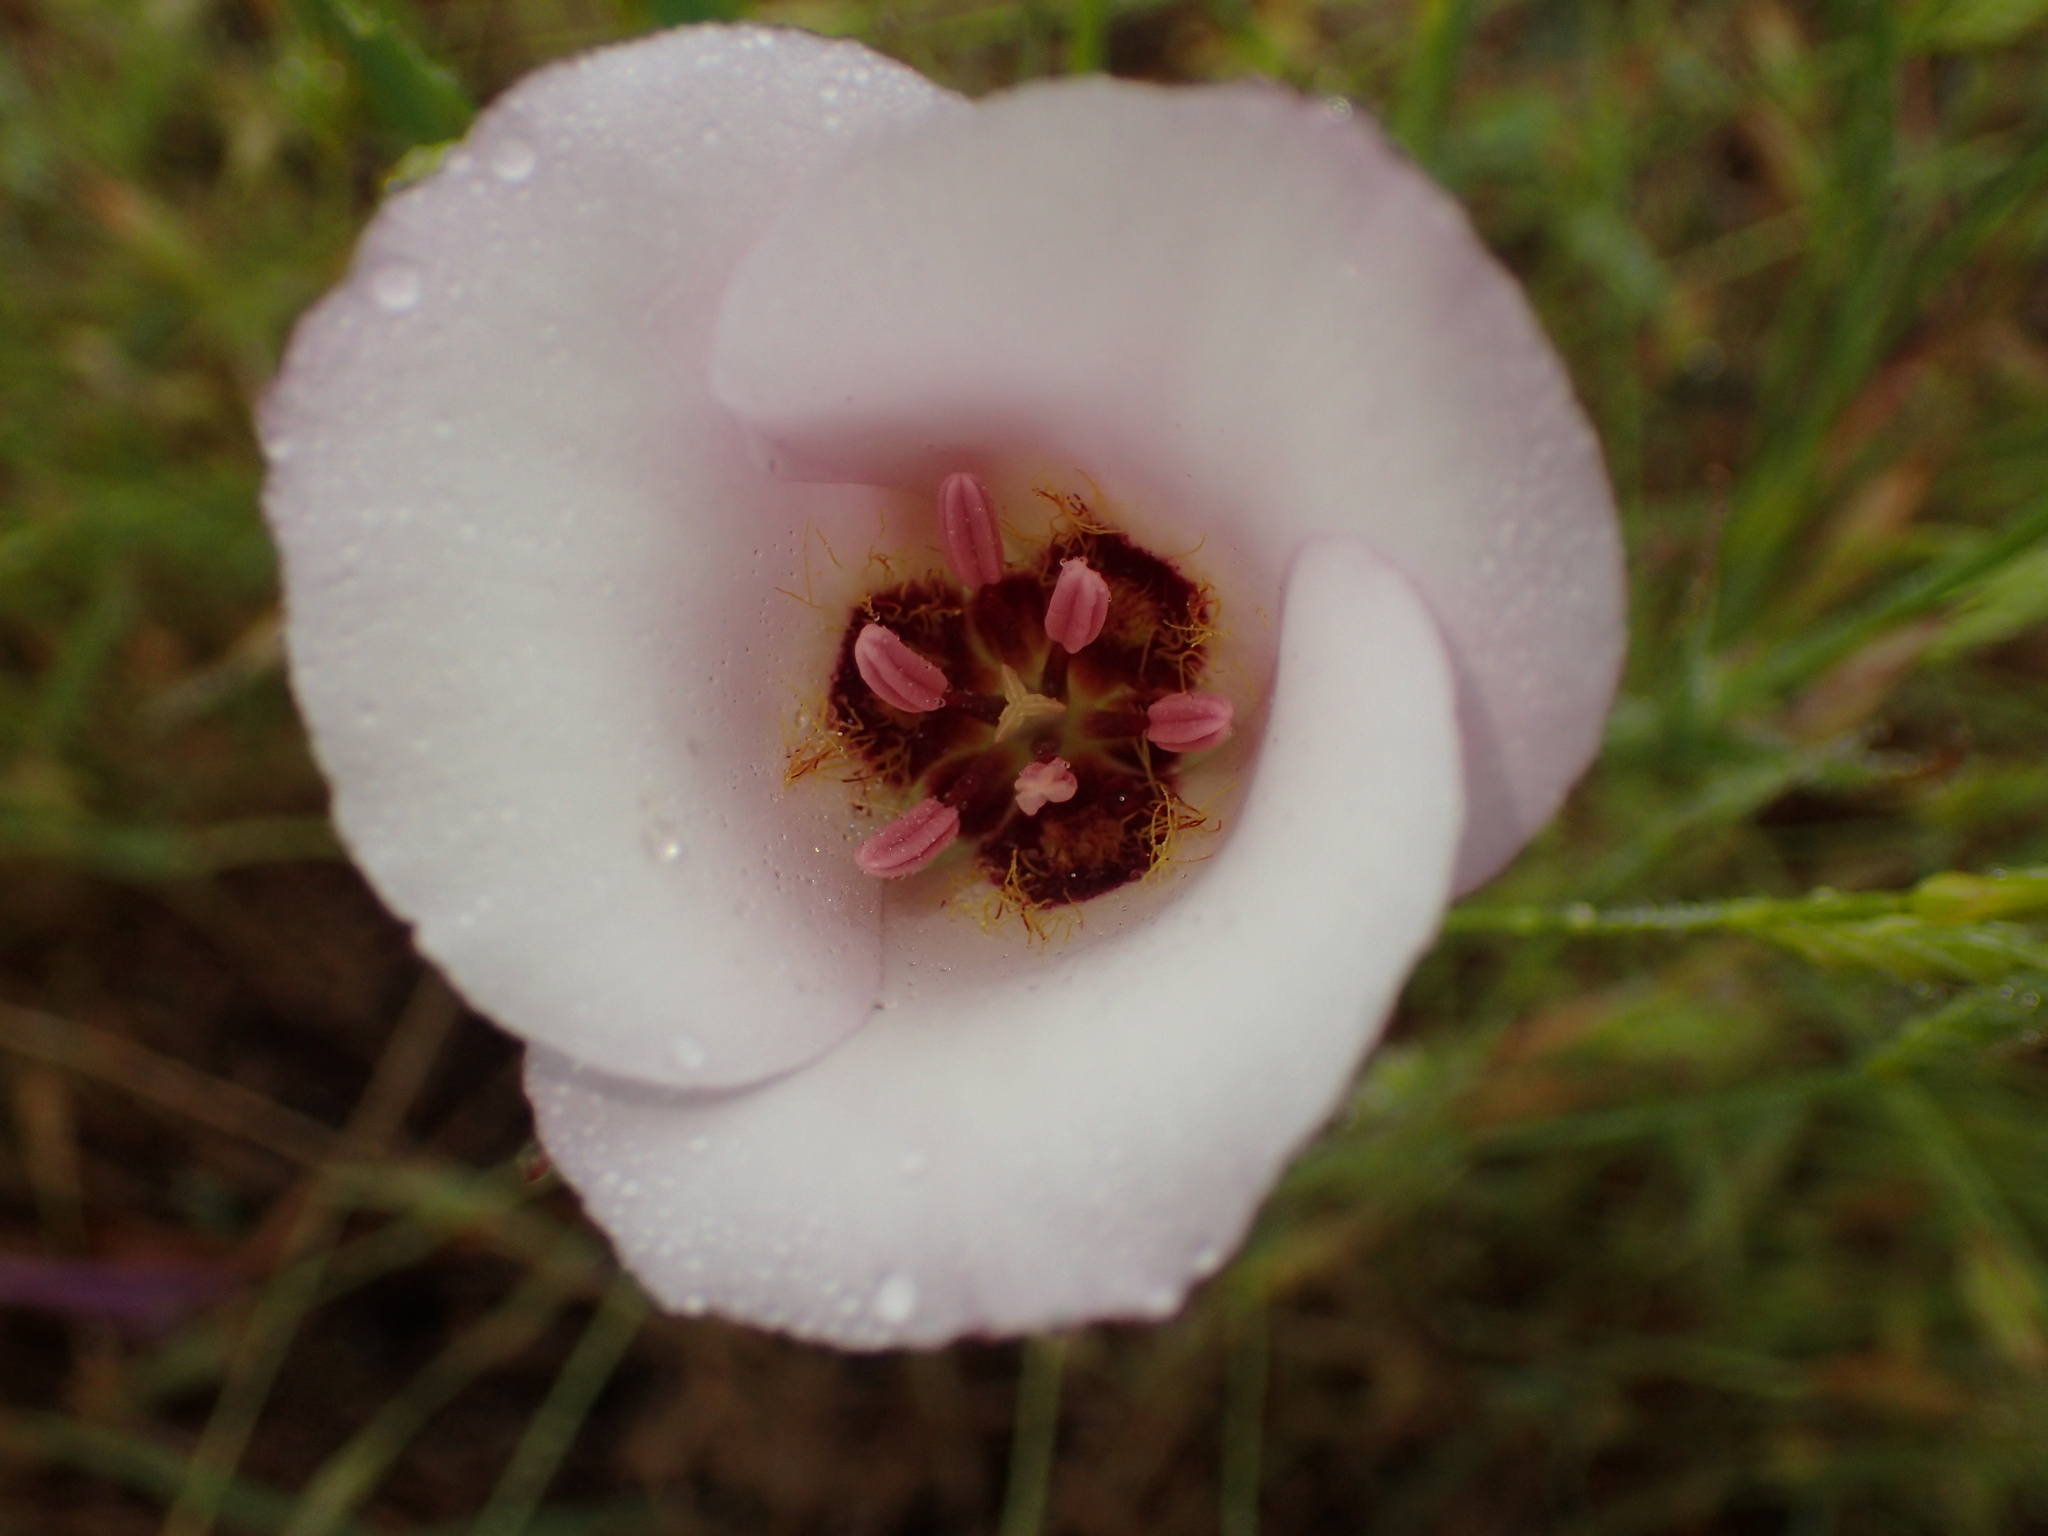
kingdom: Plantae
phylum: Tracheophyta
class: Liliopsida
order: Liliales
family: Liliaceae
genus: Calochortus
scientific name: Calochortus catalinae
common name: Catalina mariposa-lily
